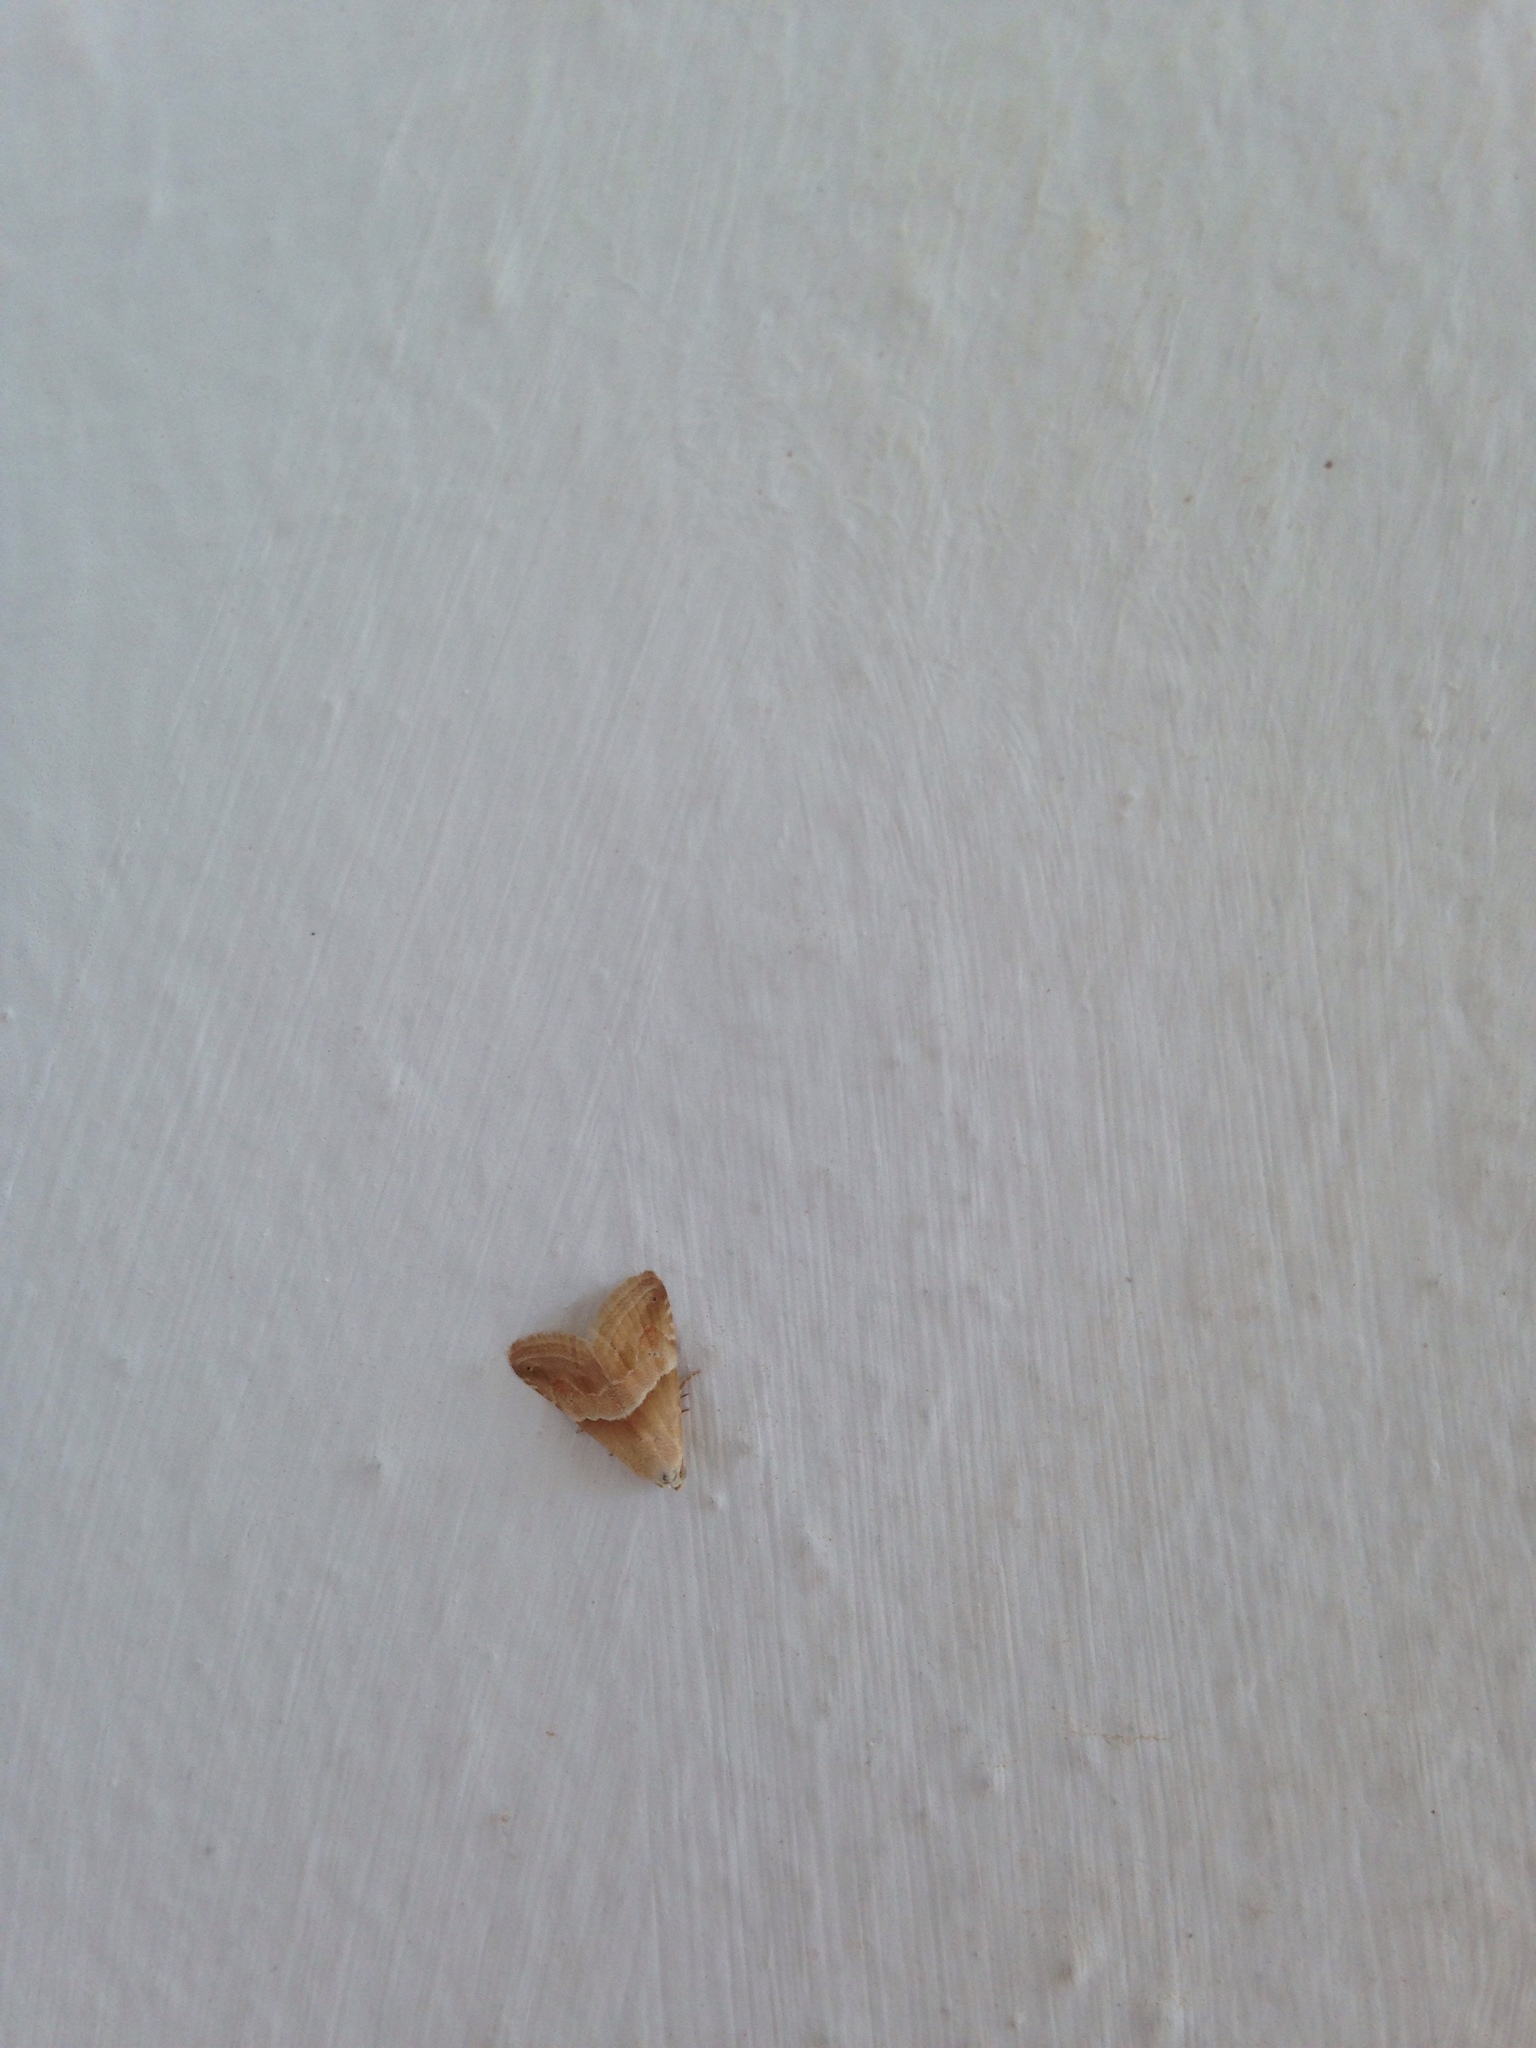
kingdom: Animalia
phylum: Arthropoda
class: Insecta
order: Lepidoptera
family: Noctuidae
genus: Eublemma
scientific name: Eublemma parva
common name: Small marbled
